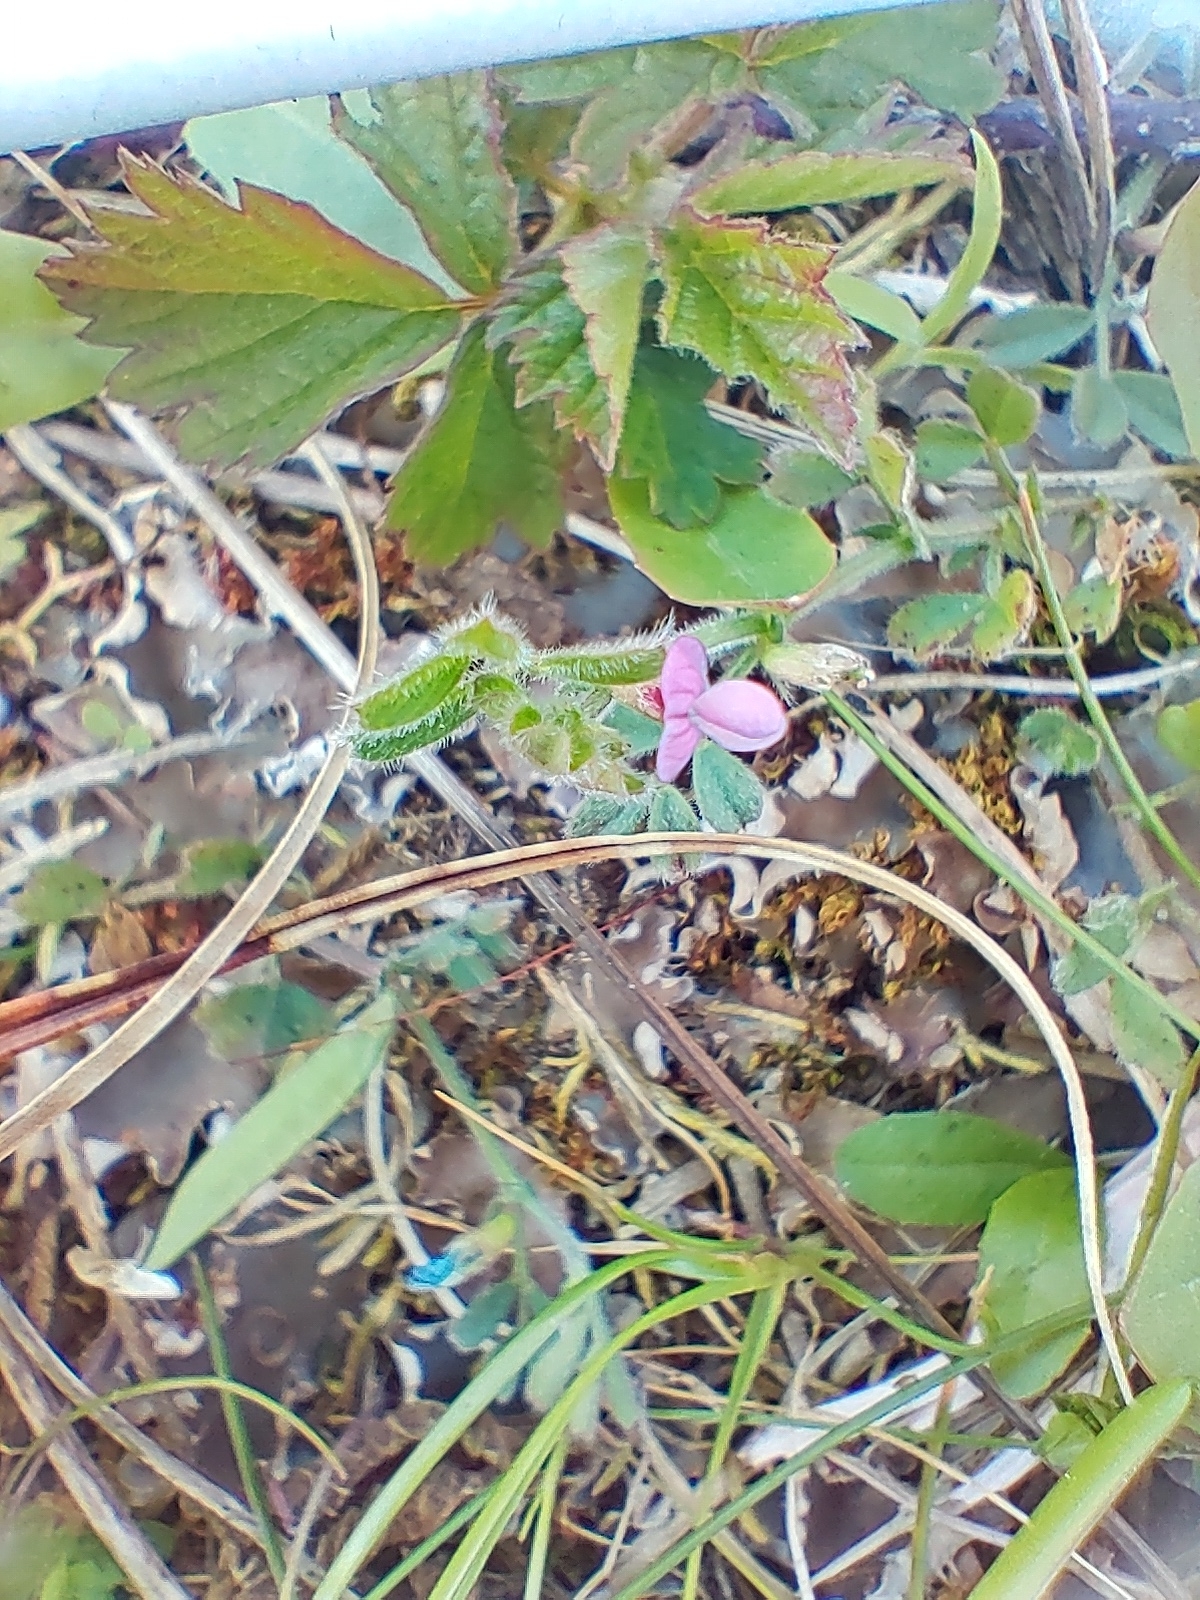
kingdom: Plantae
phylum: Tracheophyta
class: Magnoliopsida
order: Fabales
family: Fabaceae
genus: Vicia
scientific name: Vicia sativa
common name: Garden vetch
